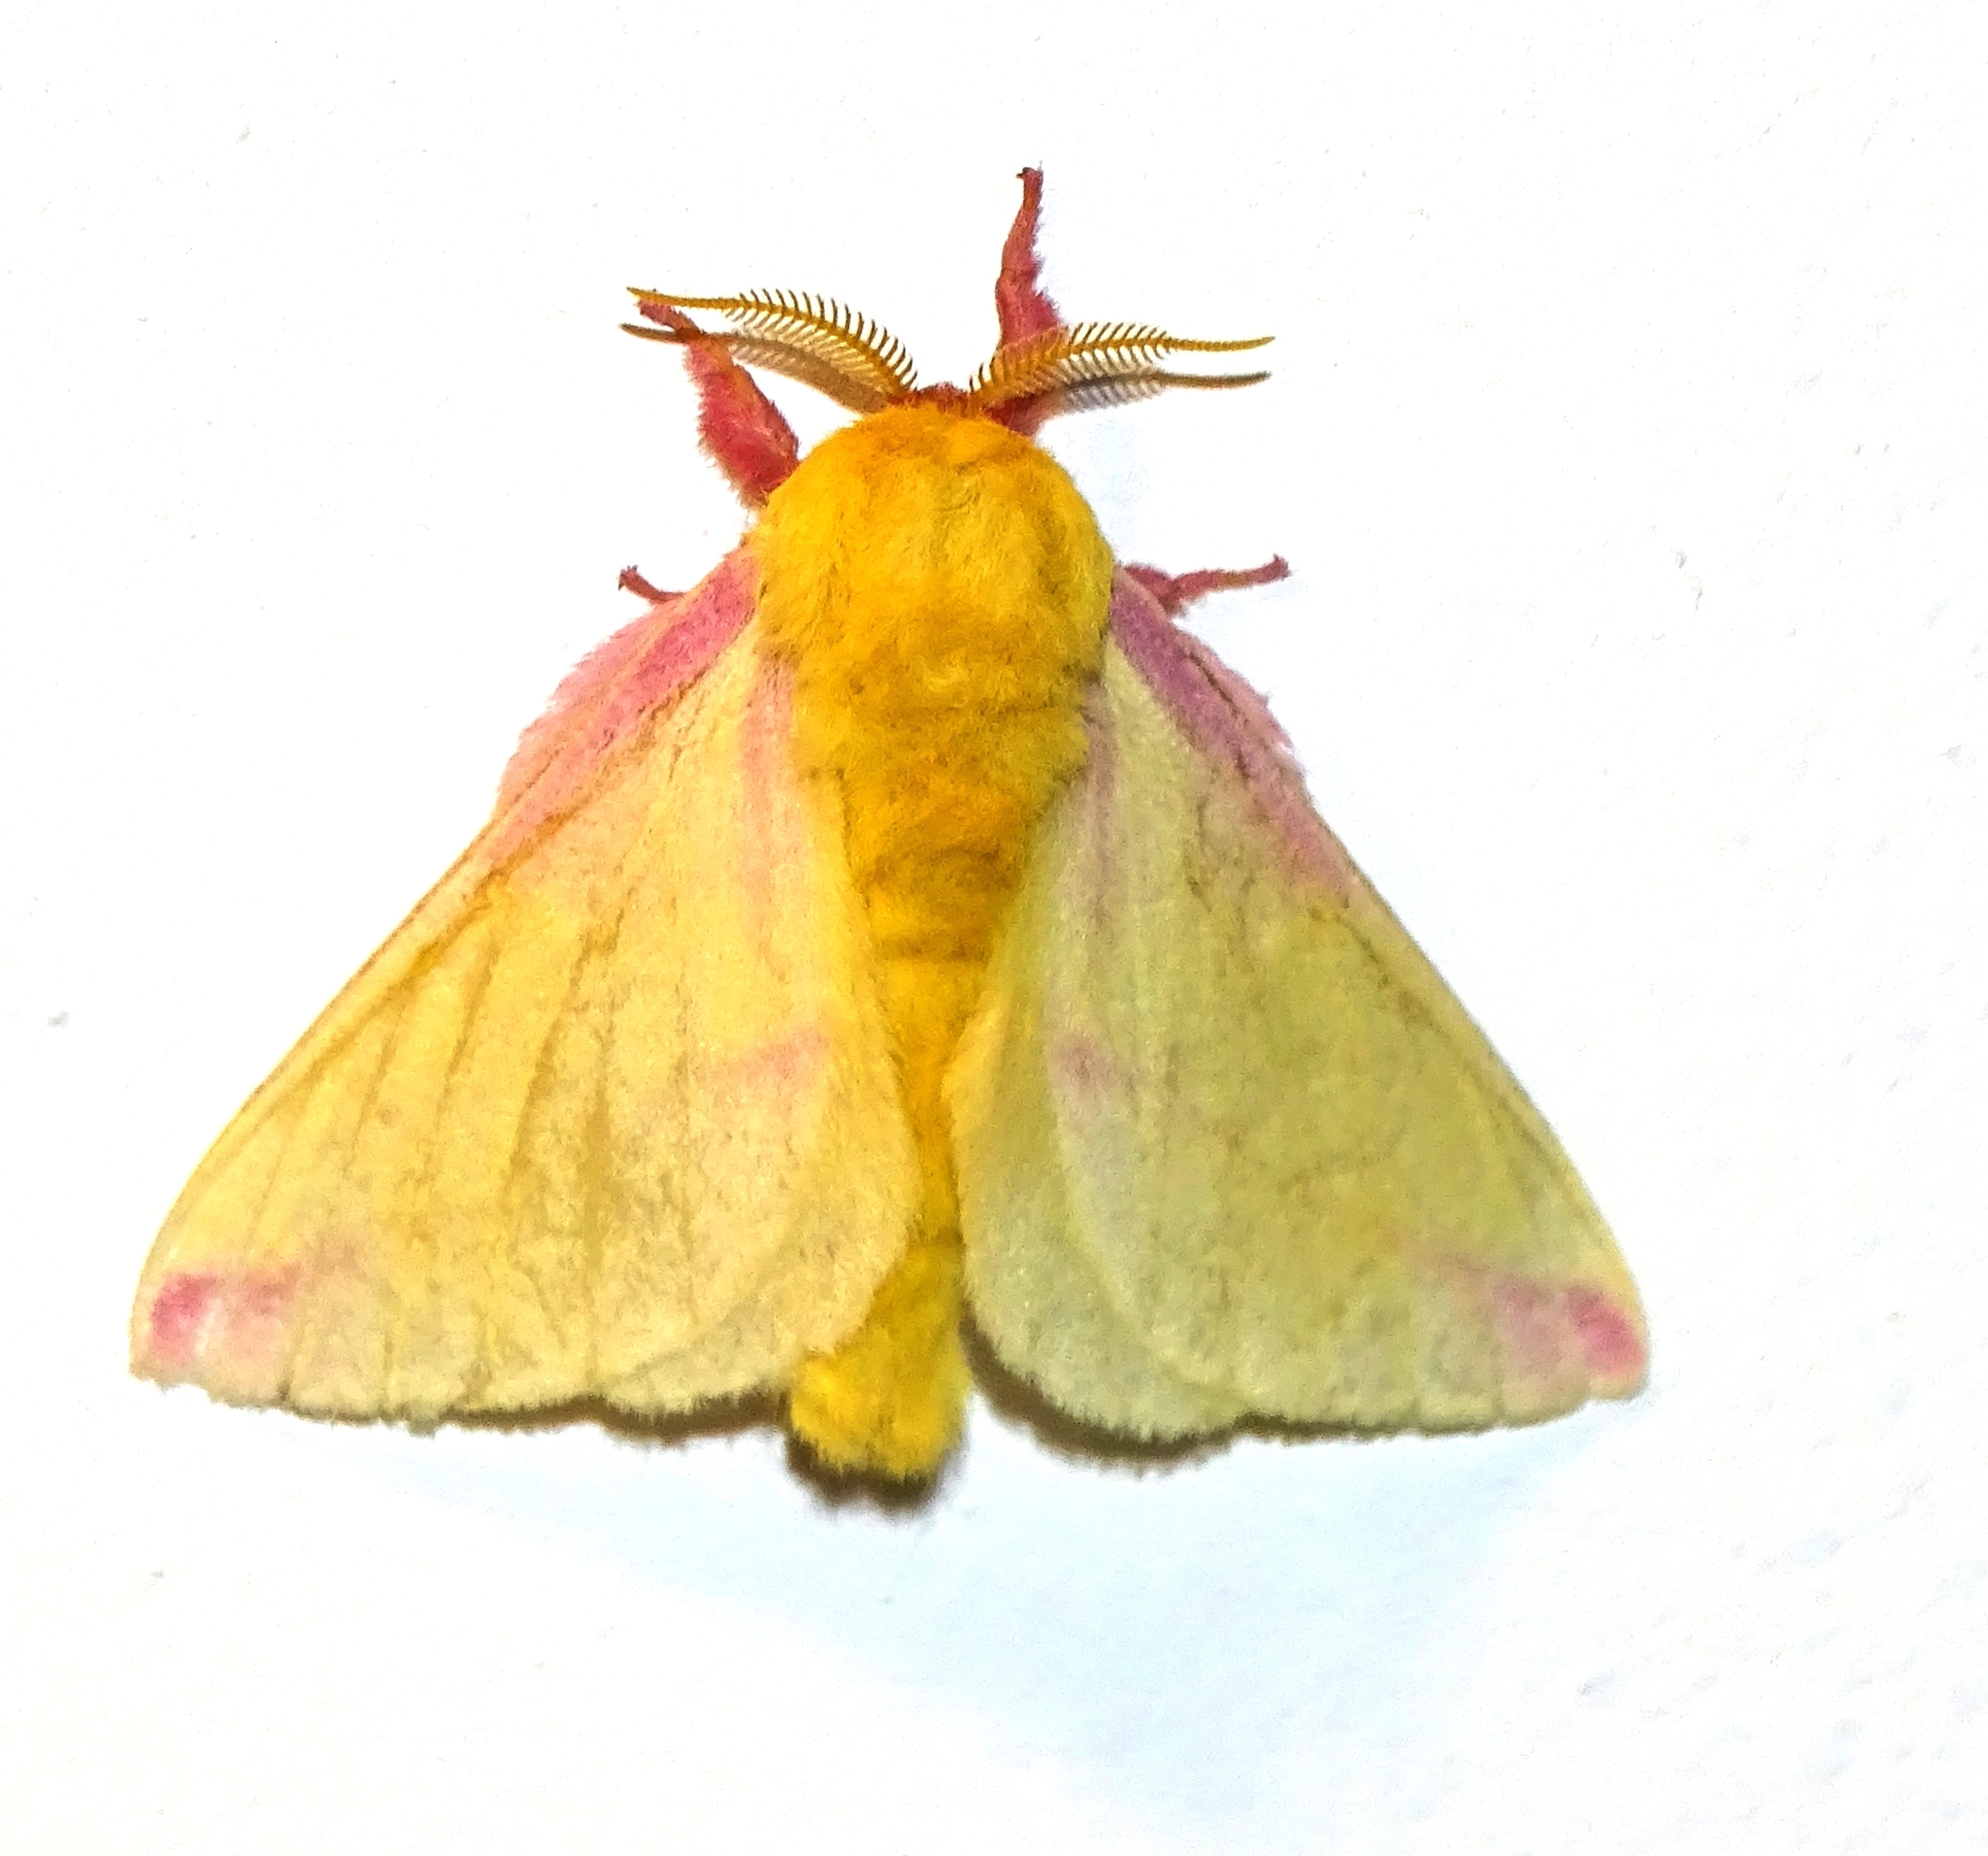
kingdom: Animalia
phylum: Arthropoda
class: Insecta
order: Lepidoptera
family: Saturniidae
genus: Dryocampa
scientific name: Dryocampa rubicunda
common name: Rosy maple moth
